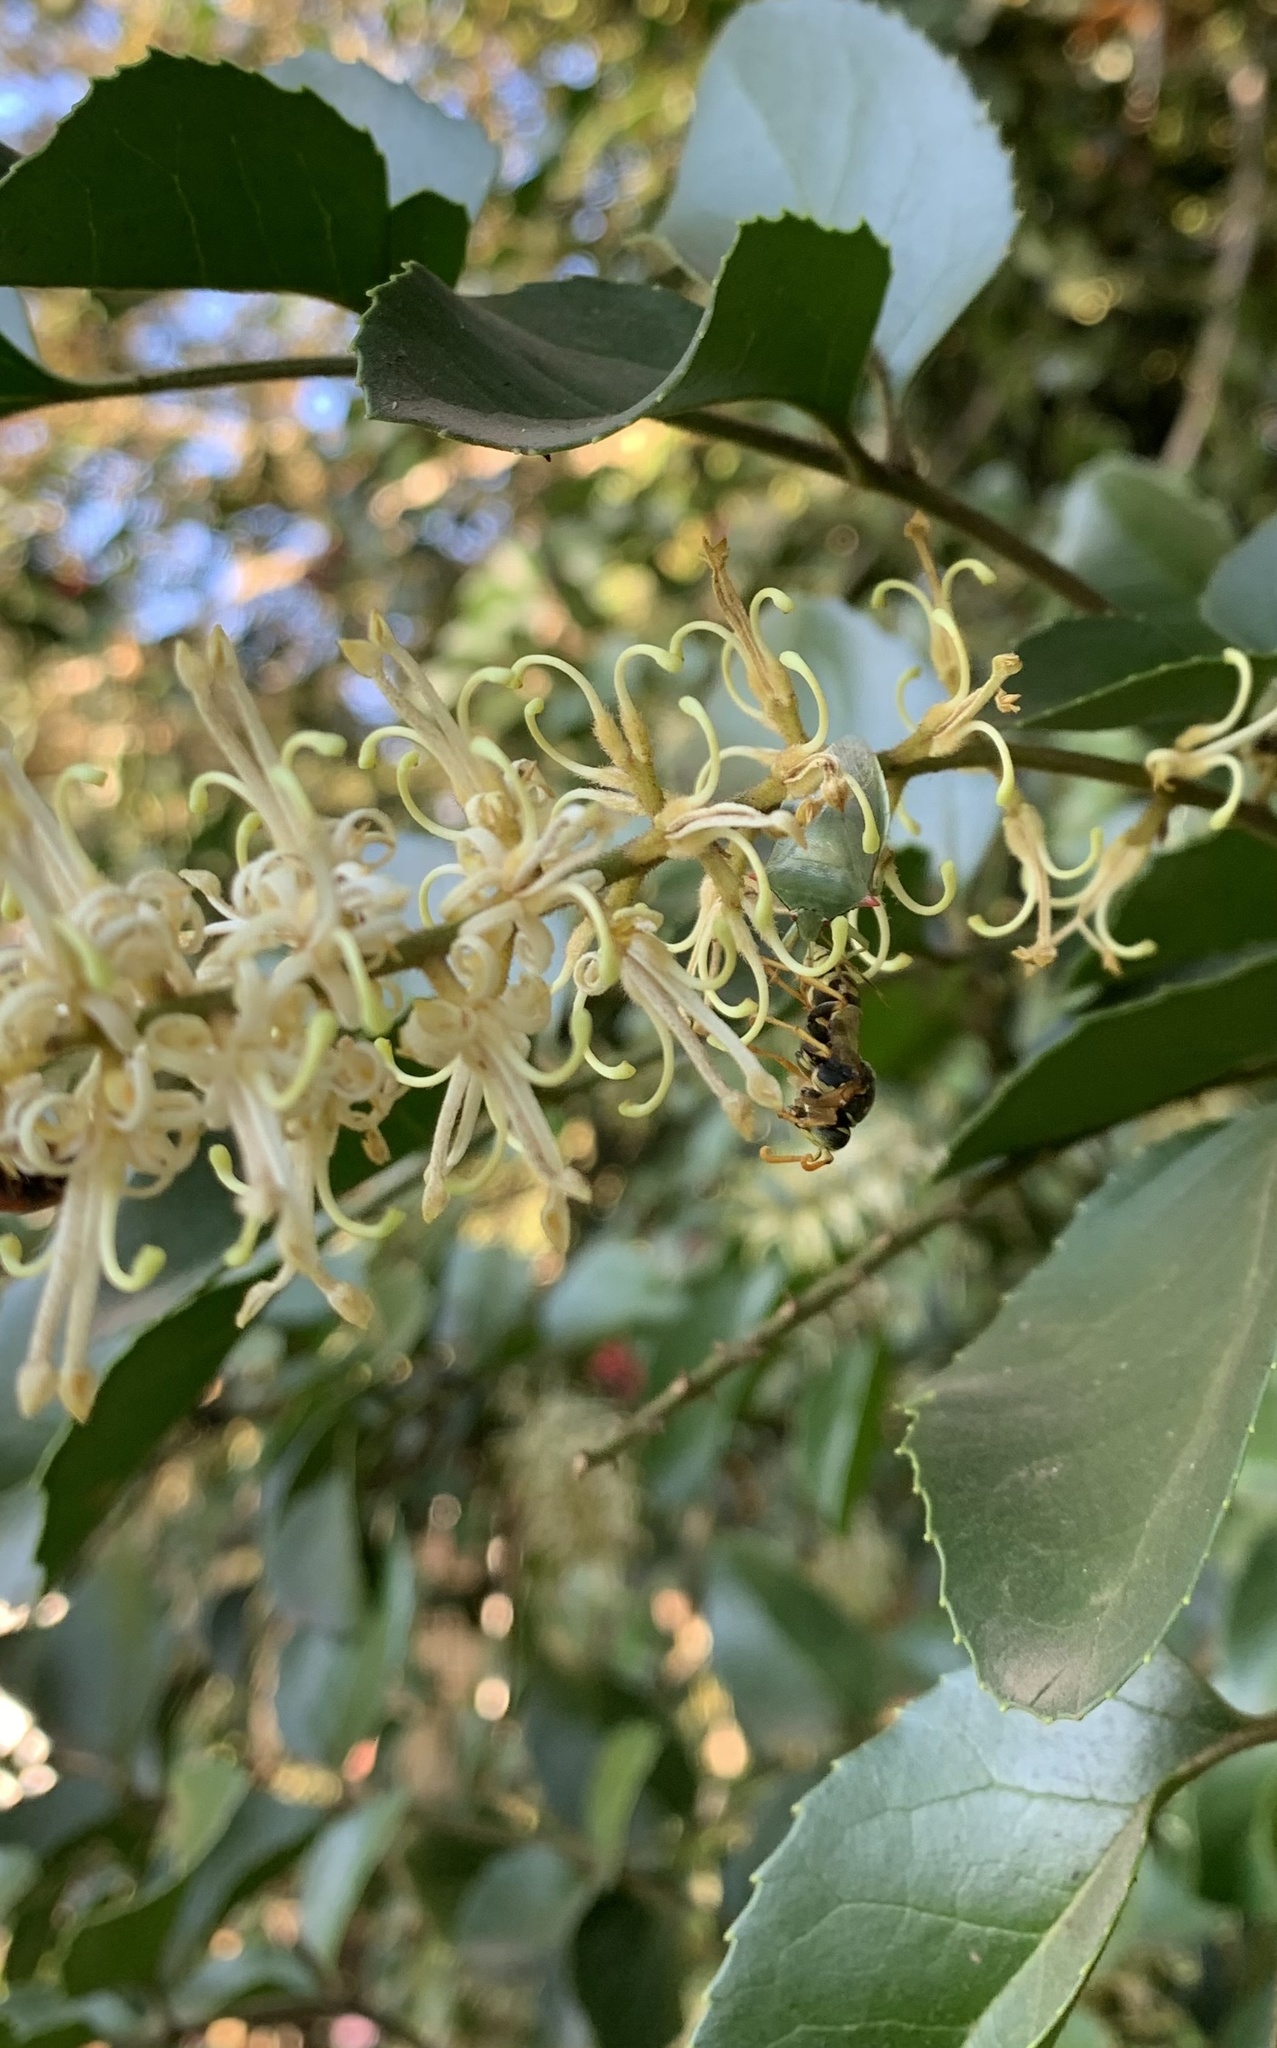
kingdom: Animalia
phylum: Arthropoda
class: Insecta
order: Hemiptera
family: Pentatomidae
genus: Brontocoris
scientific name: Brontocoris
